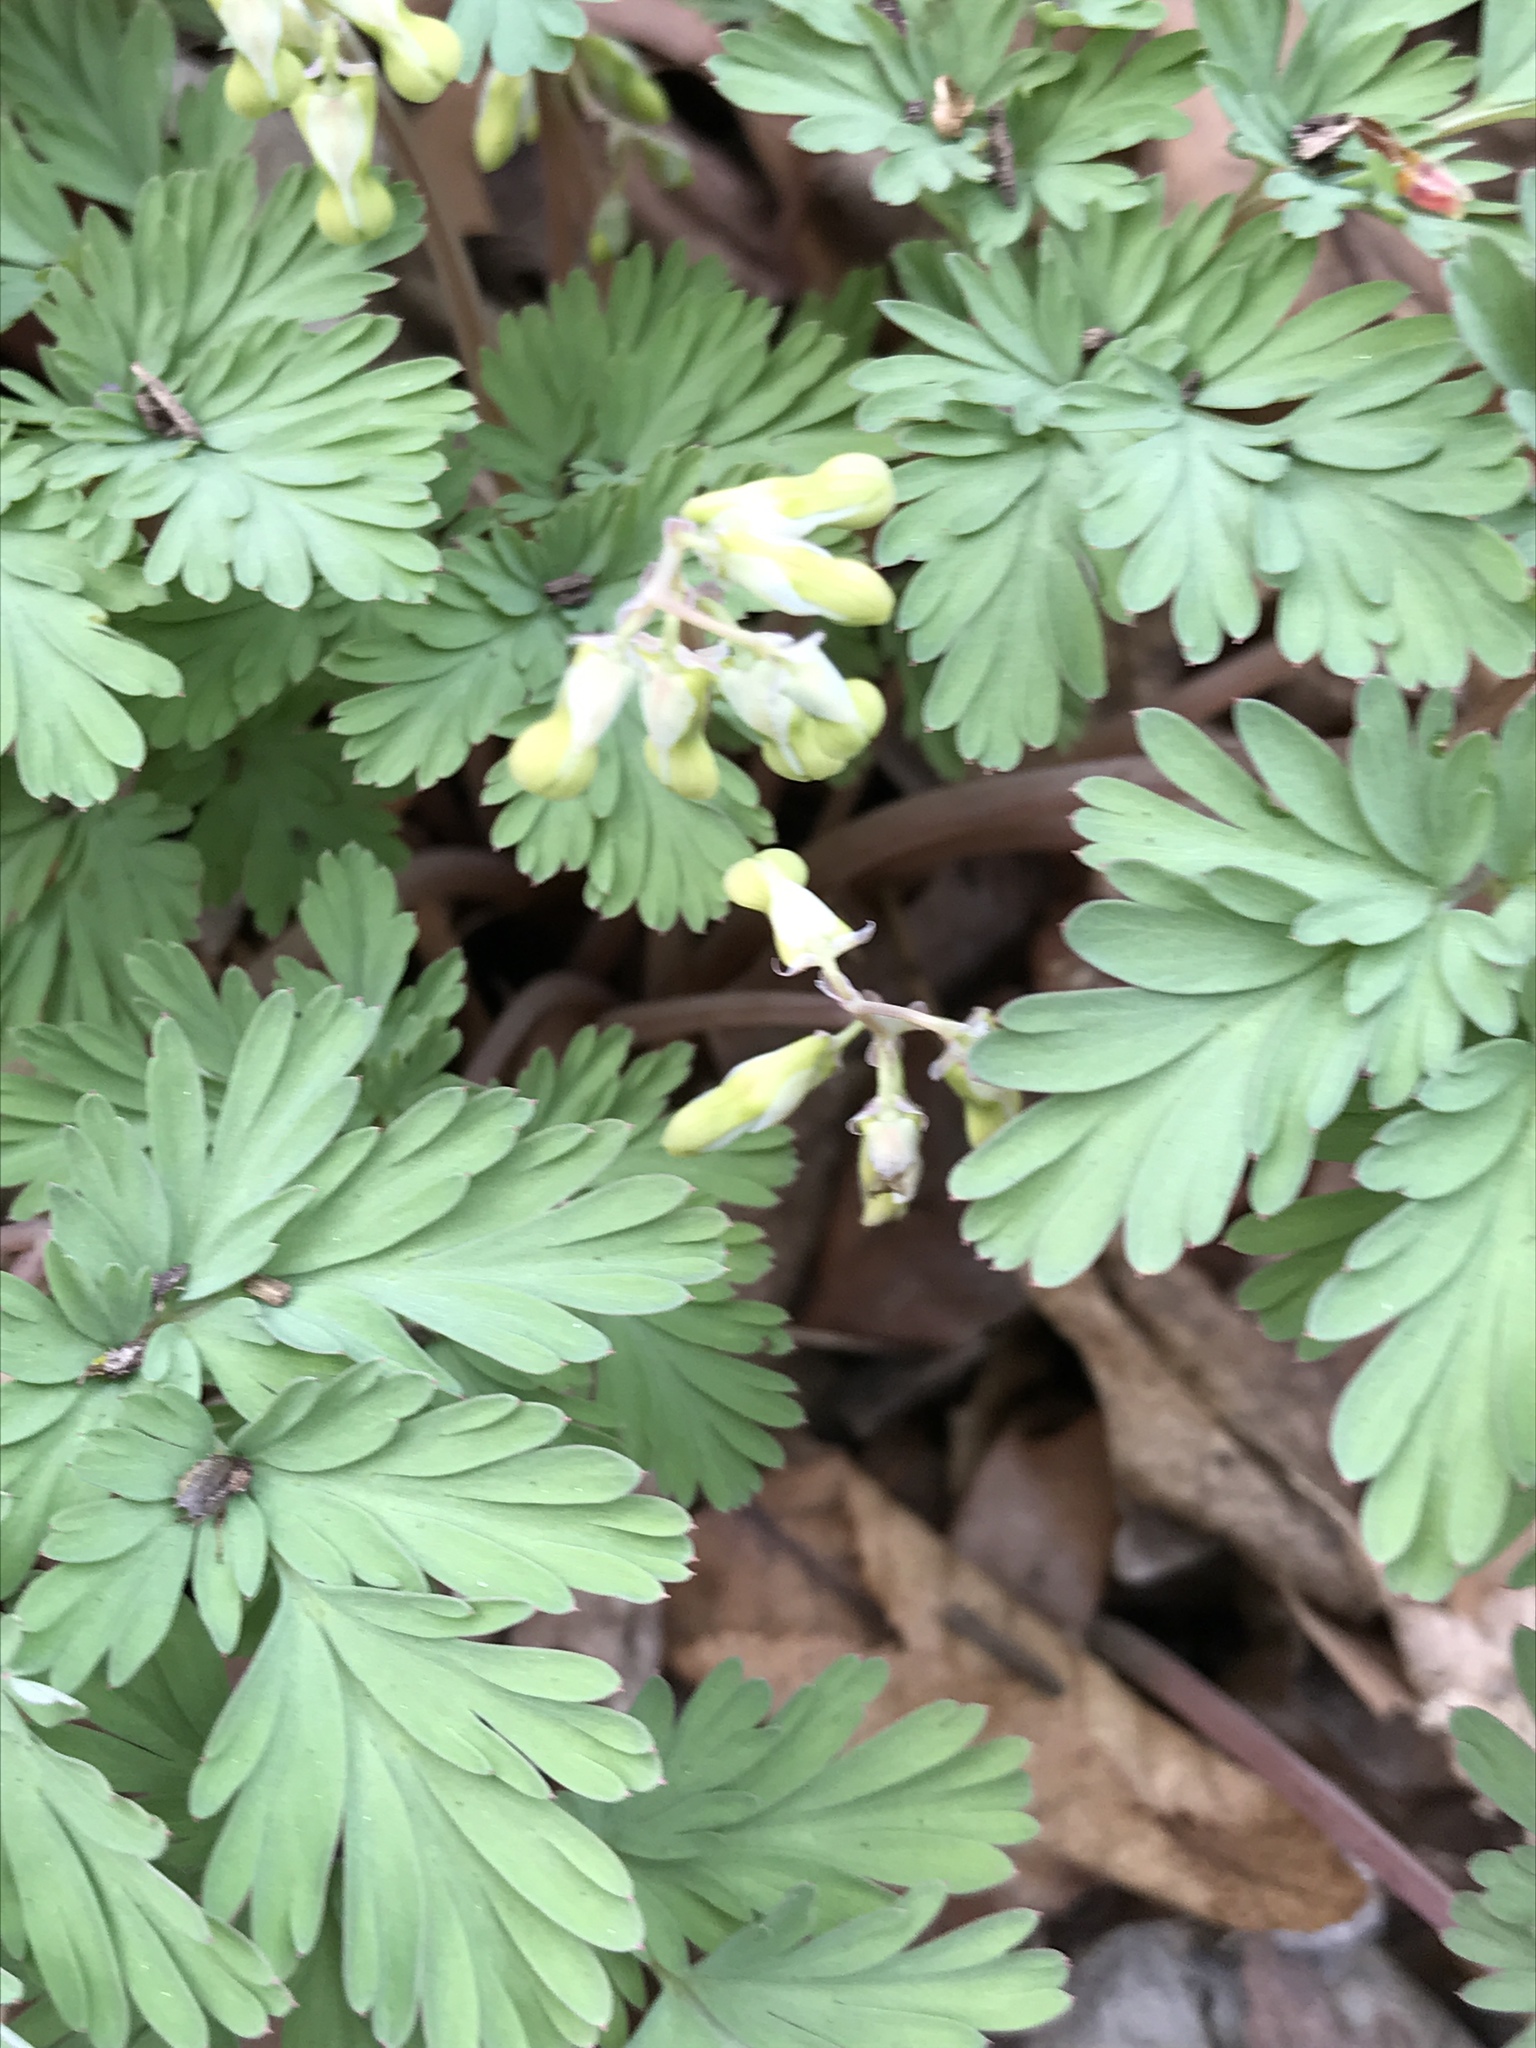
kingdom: Plantae
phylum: Tracheophyta
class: Magnoliopsida
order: Ranunculales
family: Papaveraceae
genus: Dicentra
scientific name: Dicentra cucullaria
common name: Dutchman's breeches
